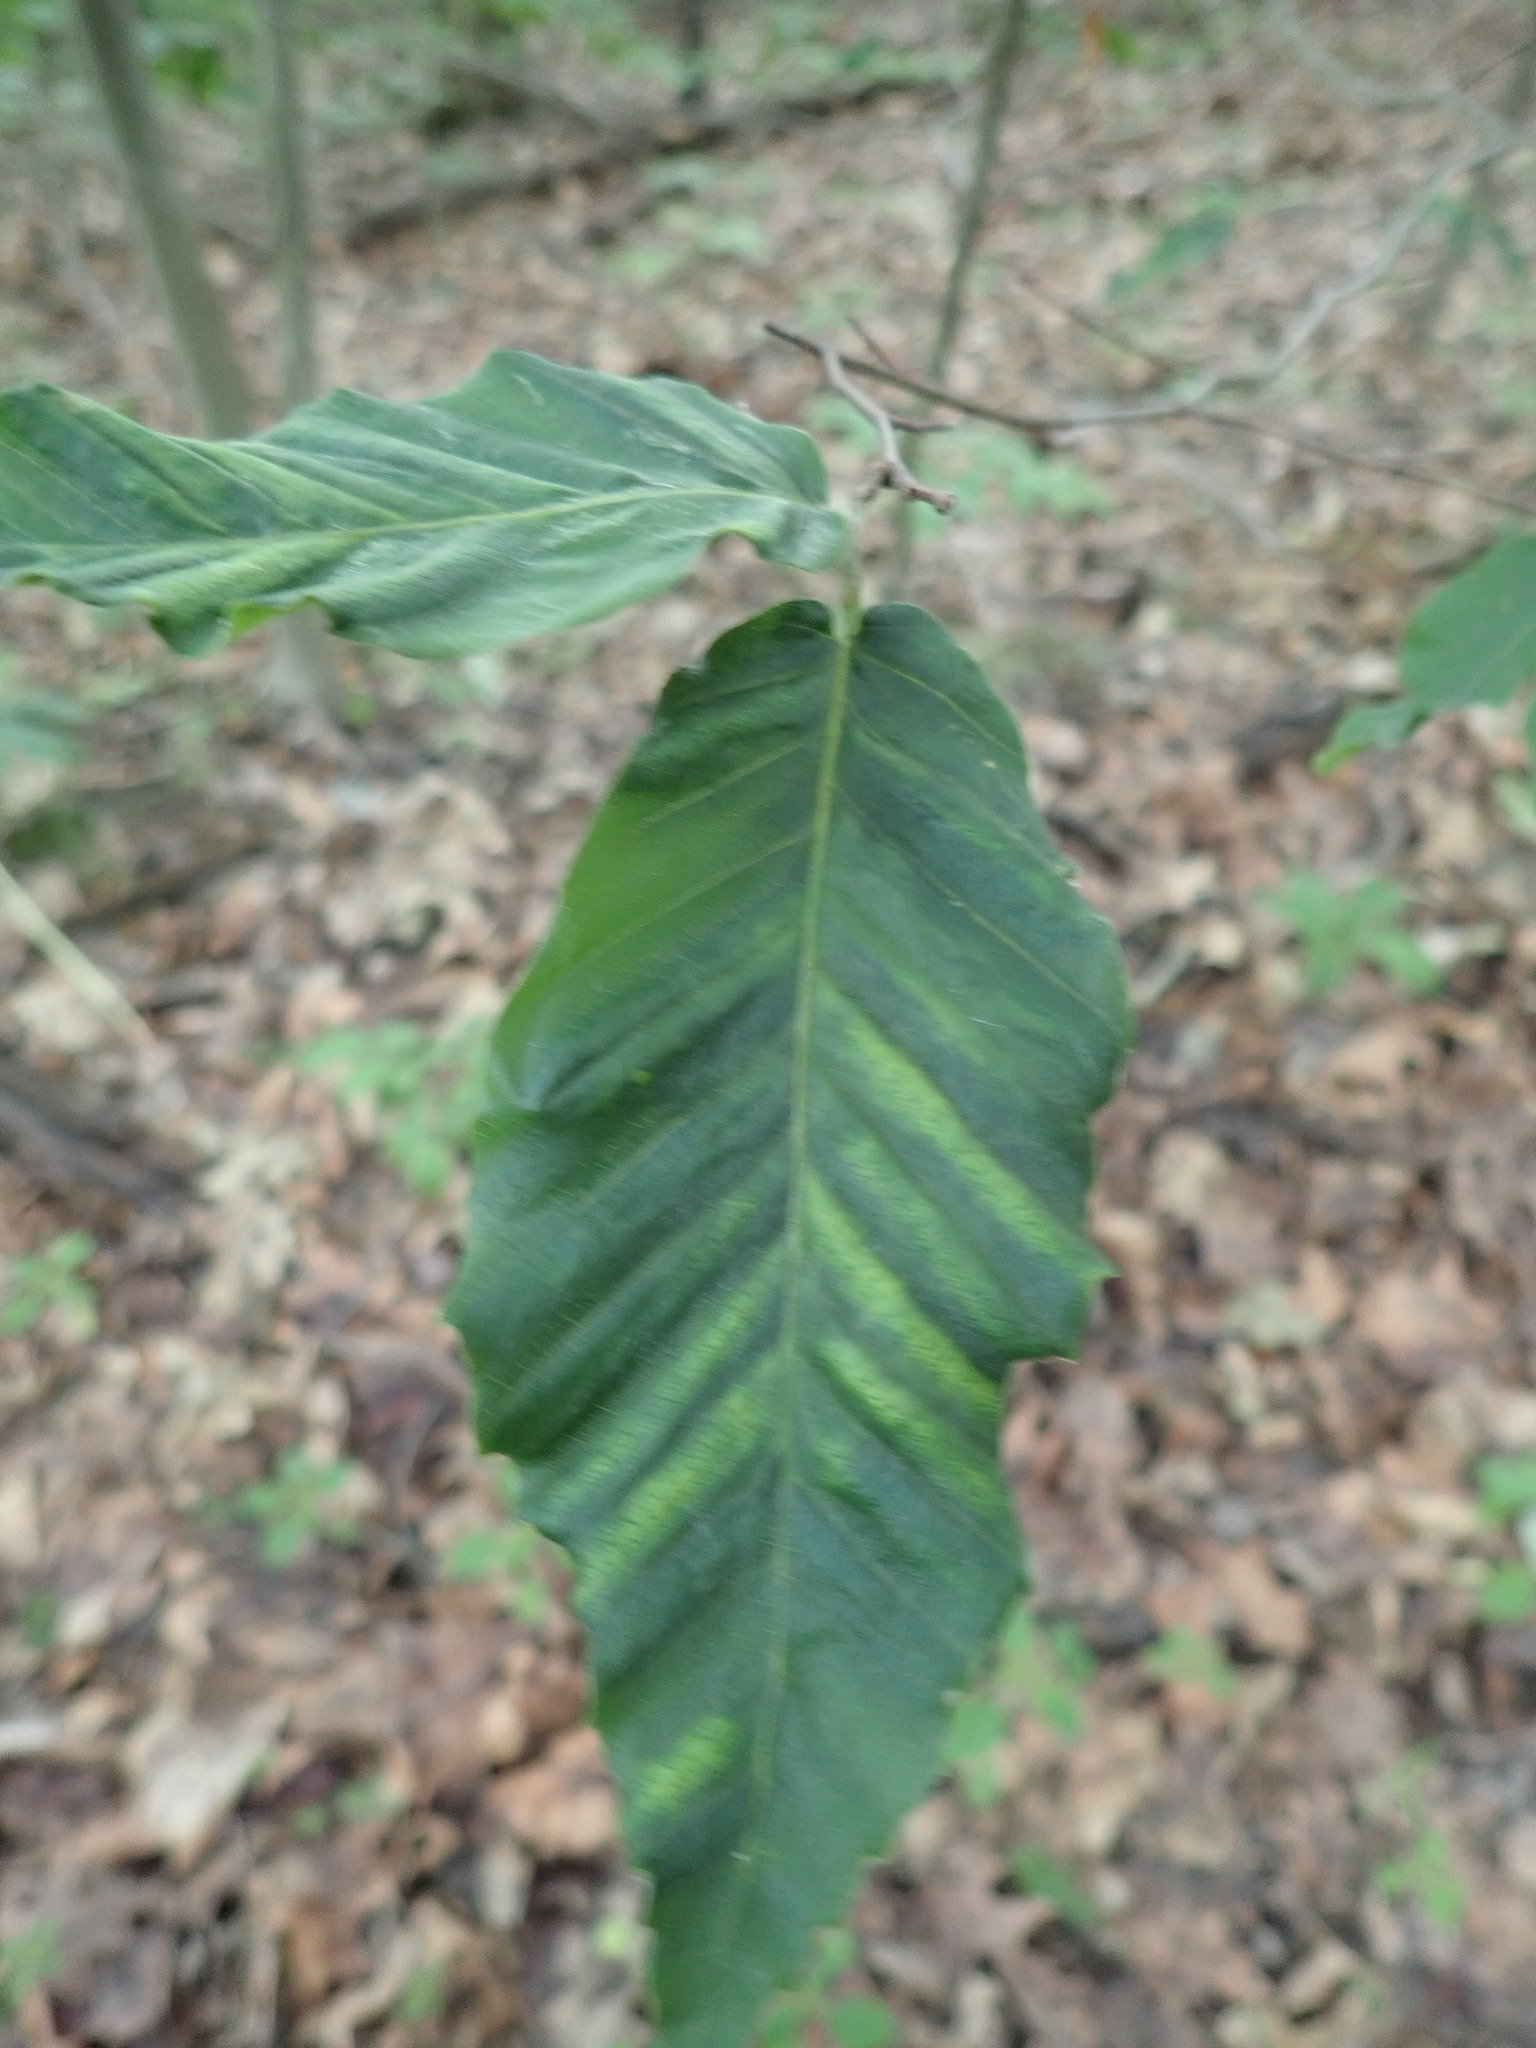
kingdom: Animalia
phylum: Nematoda
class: Chromadorea
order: Rhabditida
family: Anguinidae
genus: Litylenchus
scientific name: Litylenchus crenatae
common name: Beech leaf disease
